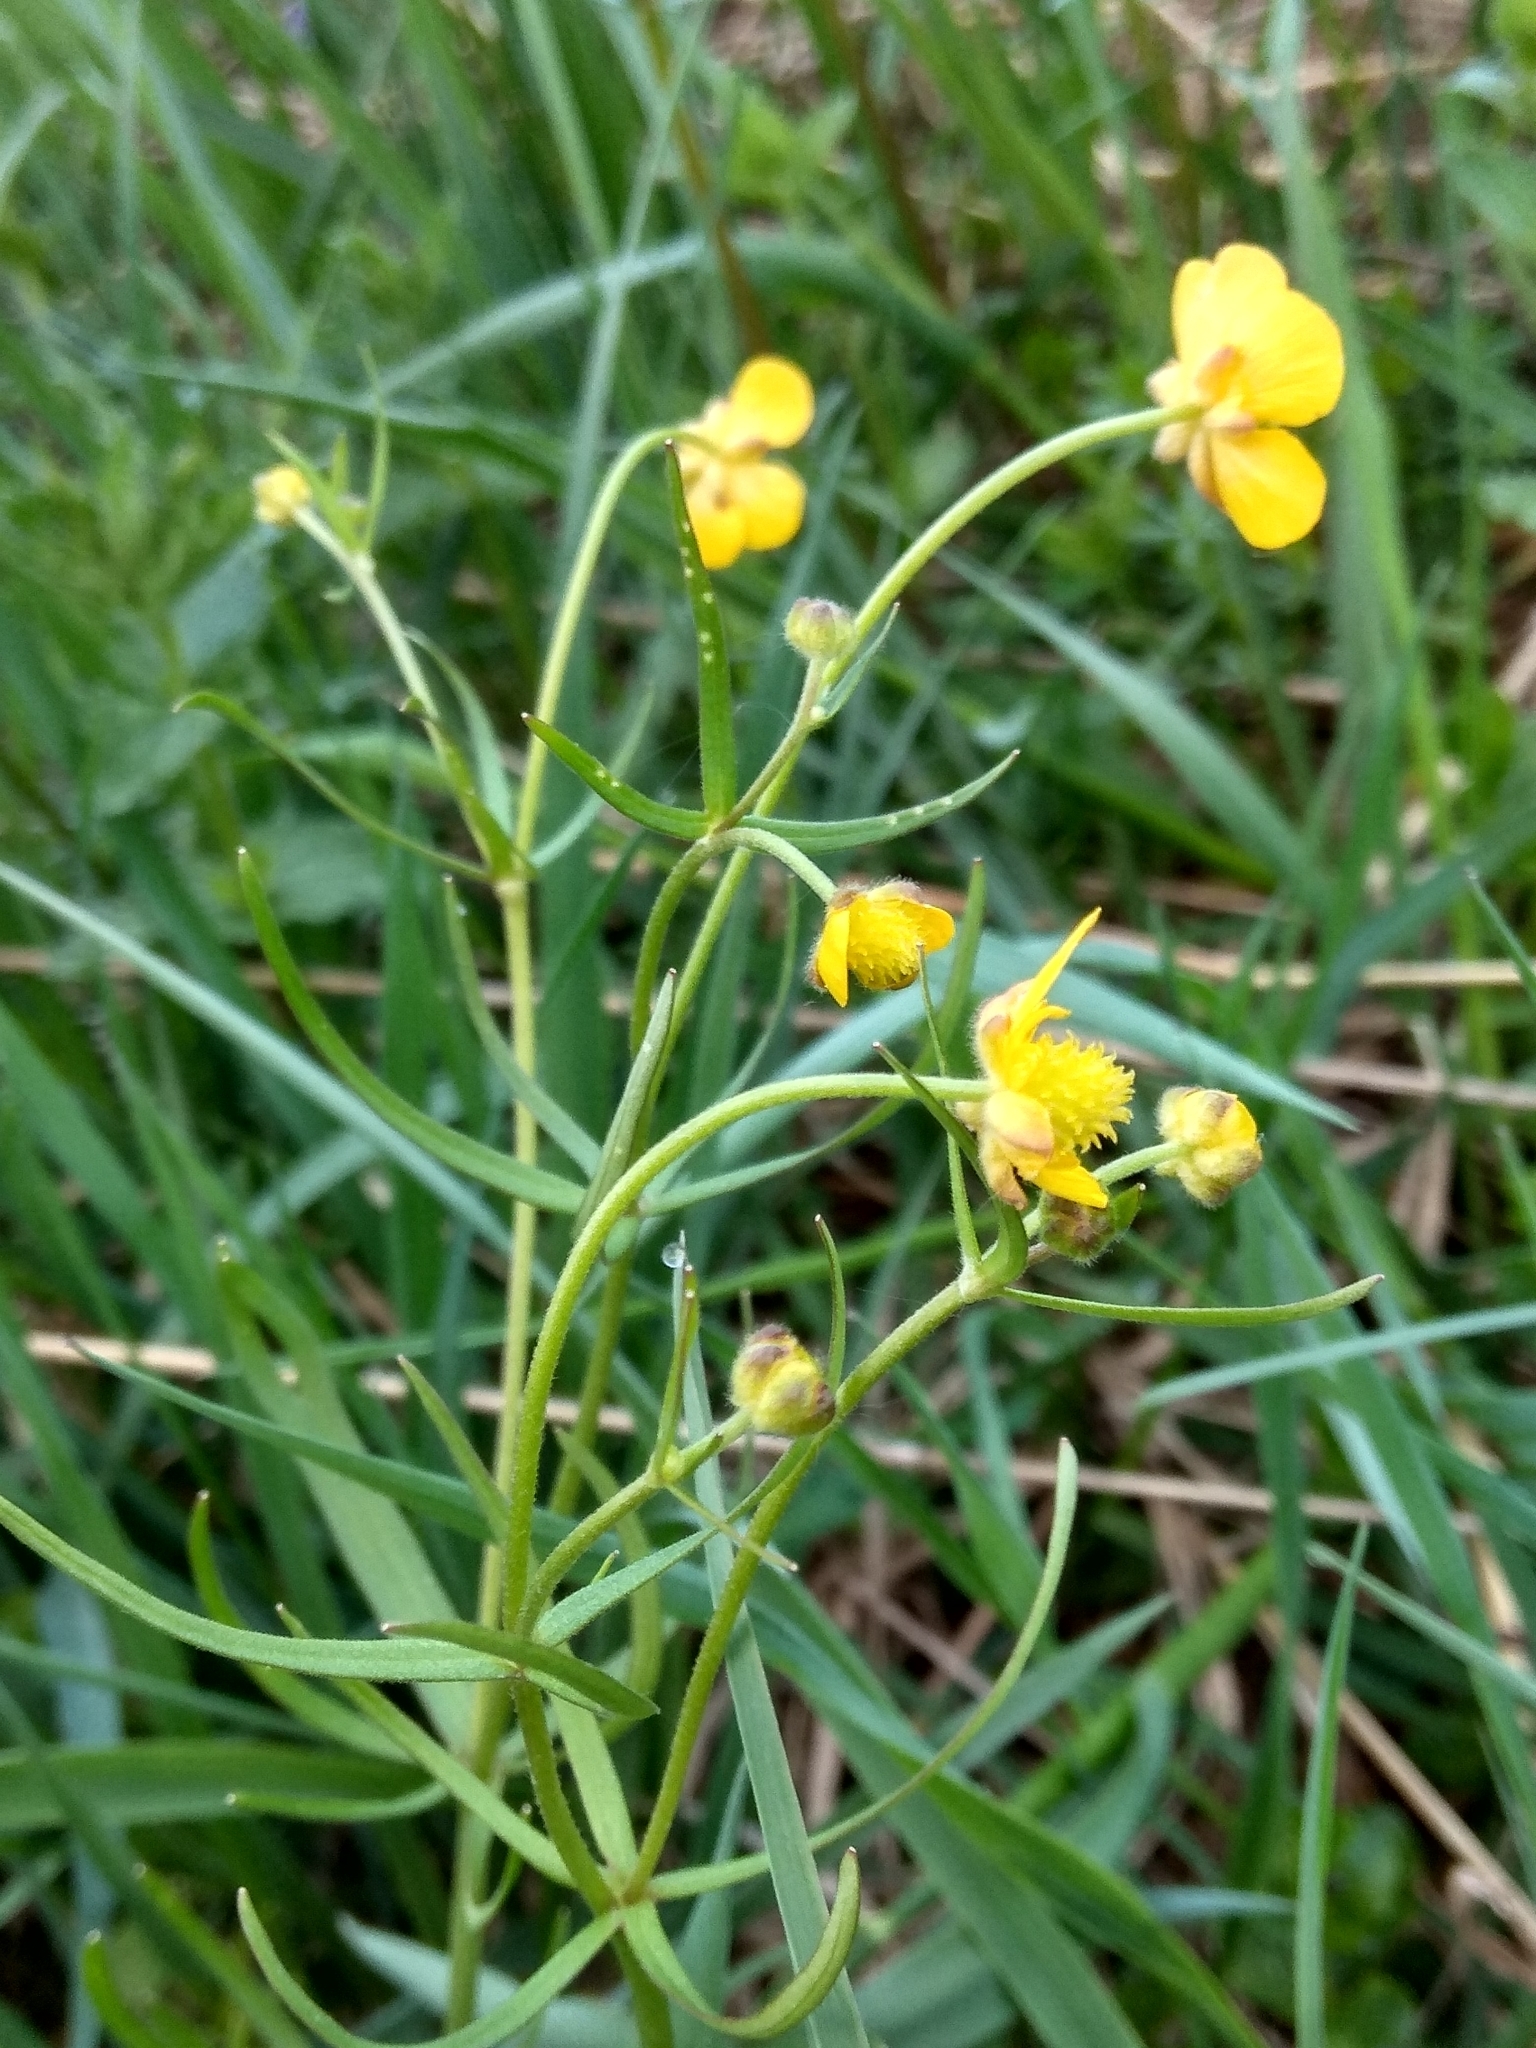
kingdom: Plantae
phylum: Tracheophyta
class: Magnoliopsida
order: Ranunculales
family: Ranunculaceae
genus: Ranunculus
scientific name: Ranunculus auricomus
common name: Goldilocks buttercup
